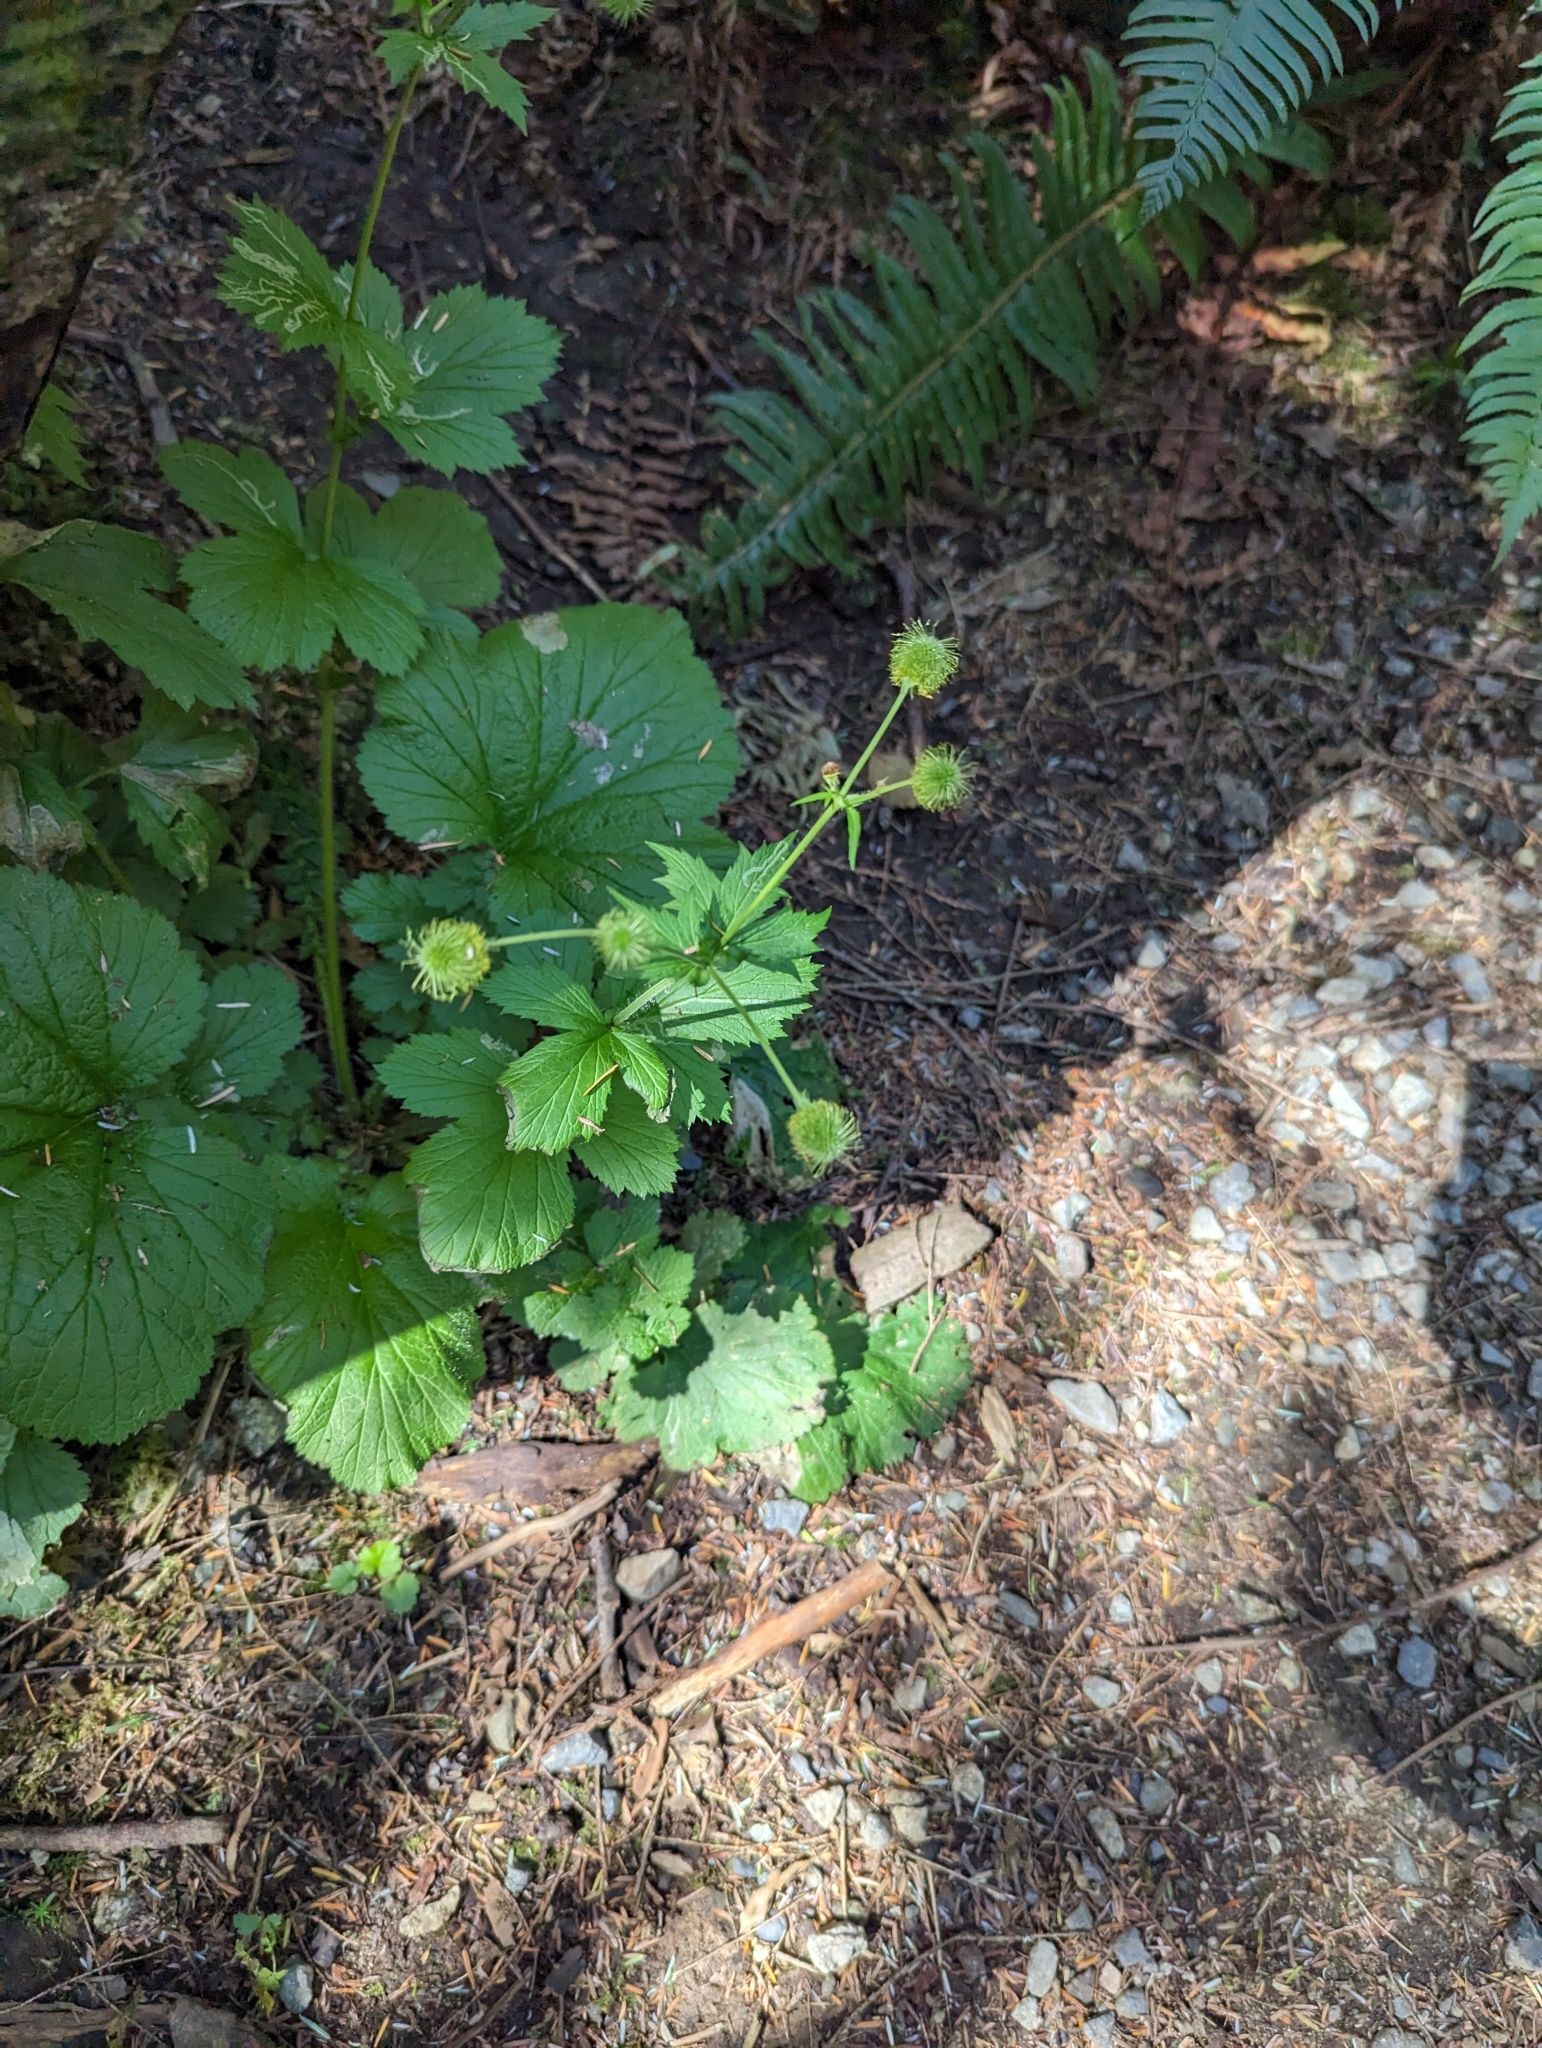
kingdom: Plantae
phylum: Tracheophyta
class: Magnoliopsida
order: Rosales
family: Rosaceae
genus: Geum
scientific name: Geum macrophyllum
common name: Large-leaved avens
